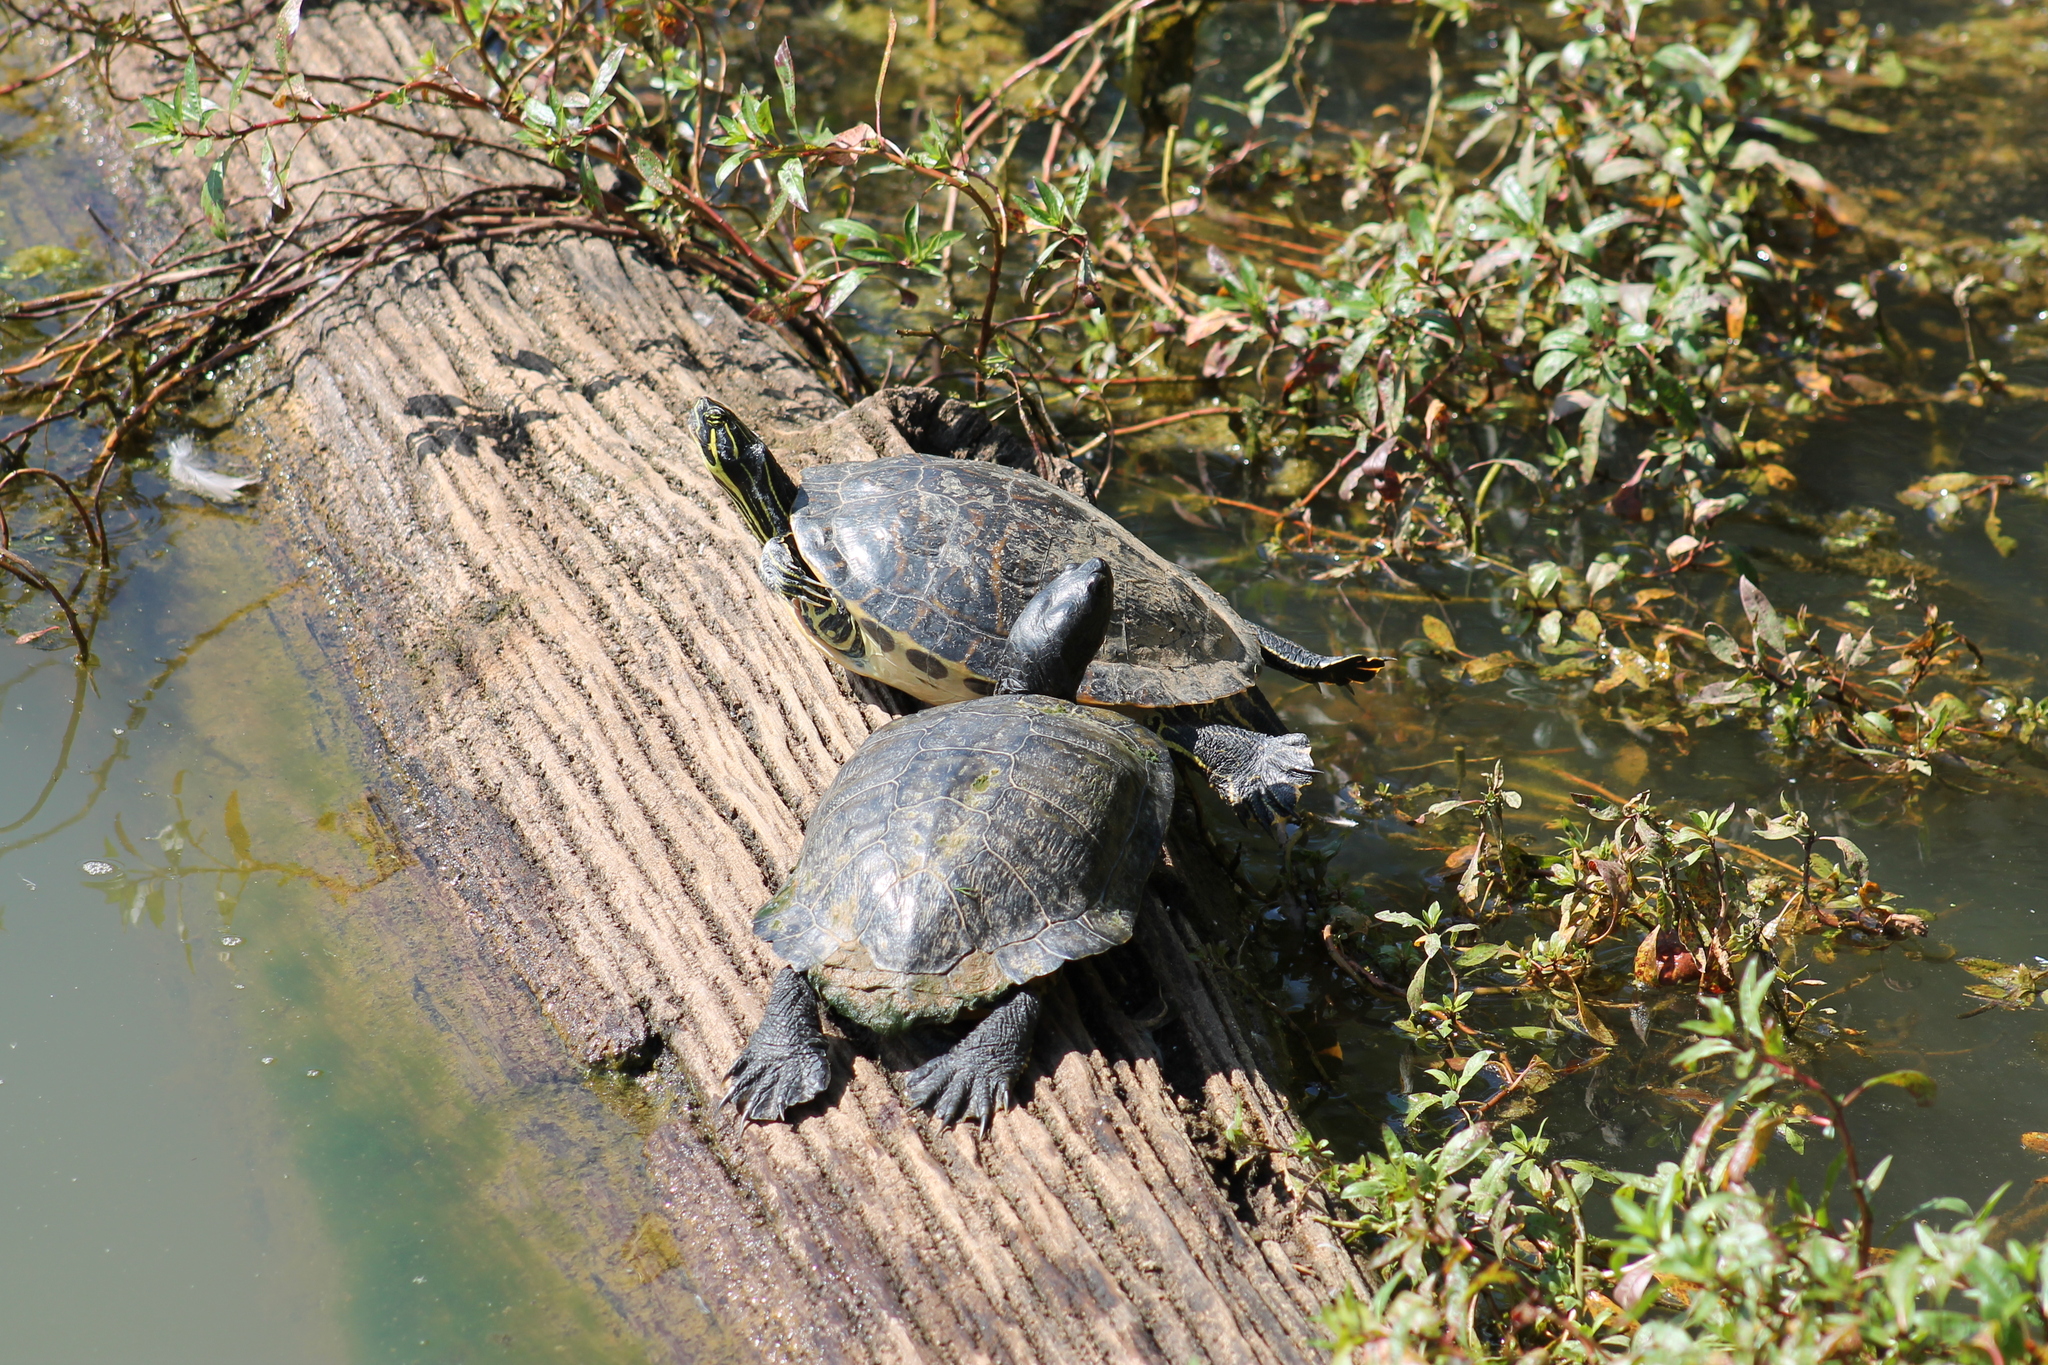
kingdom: Animalia
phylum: Chordata
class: Testudines
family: Emydidae
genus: Trachemys
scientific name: Trachemys scripta
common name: Slider
